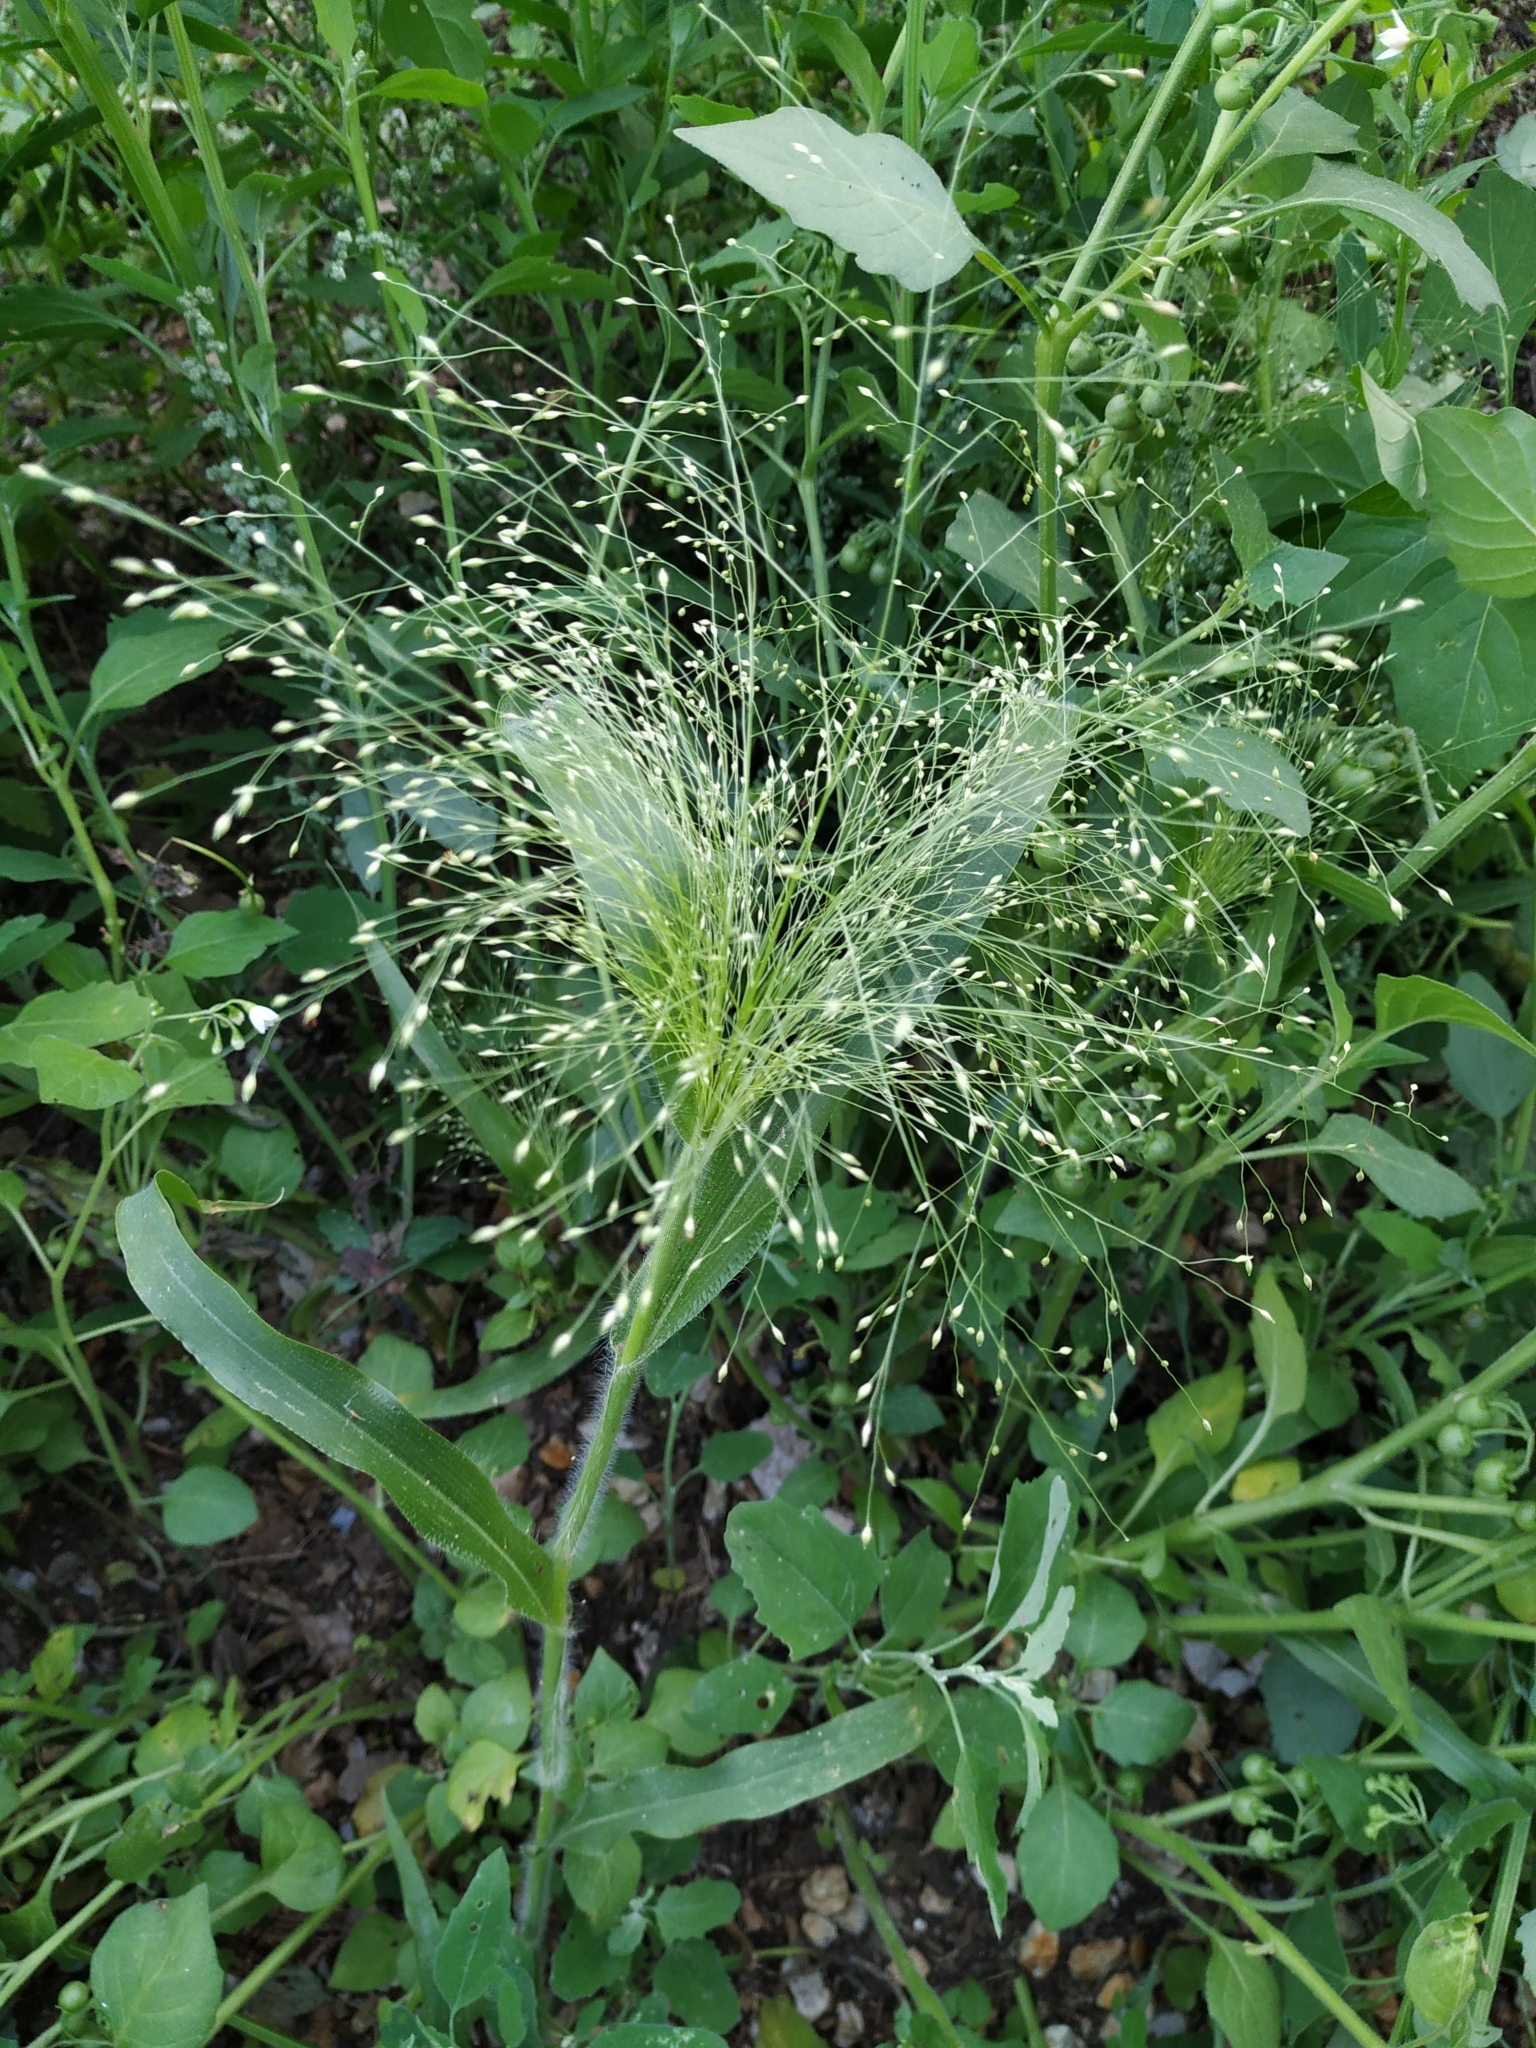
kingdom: Plantae
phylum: Tracheophyta
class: Liliopsida
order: Poales
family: Poaceae
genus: Panicum
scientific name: Panicum capillare
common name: Witch-grass
